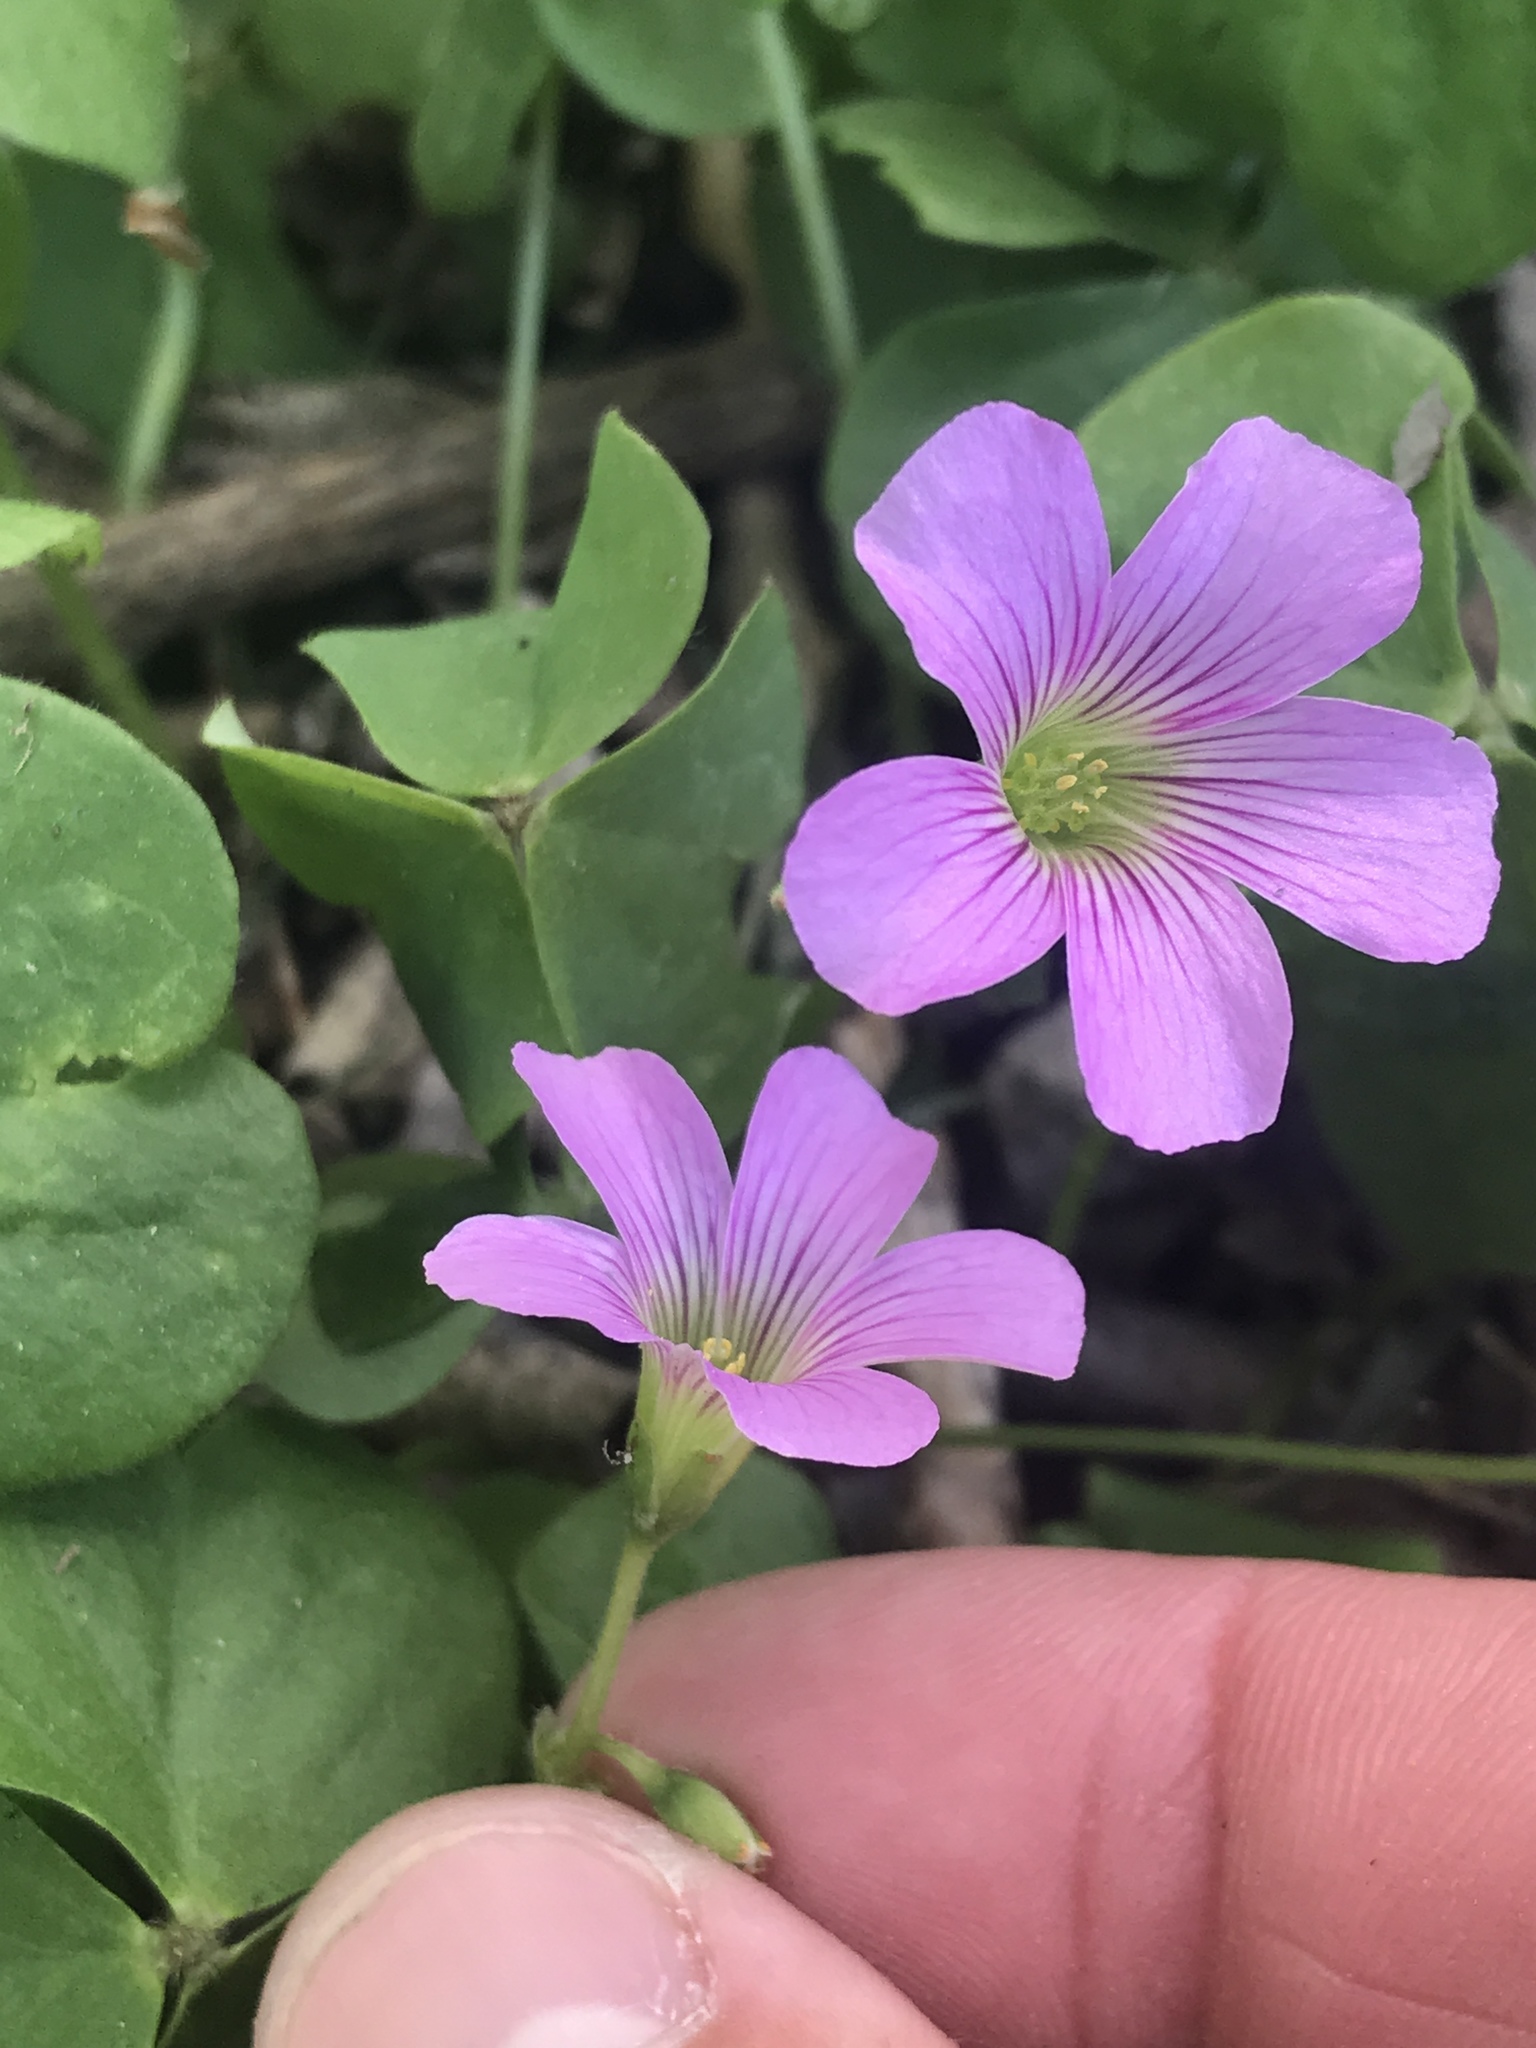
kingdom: Plantae
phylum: Tracheophyta
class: Magnoliopsida
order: Oxalidales
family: Oxalidaceae
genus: Oxalis
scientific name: Oxalis debilis
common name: Large-flowered pink-sorrel
